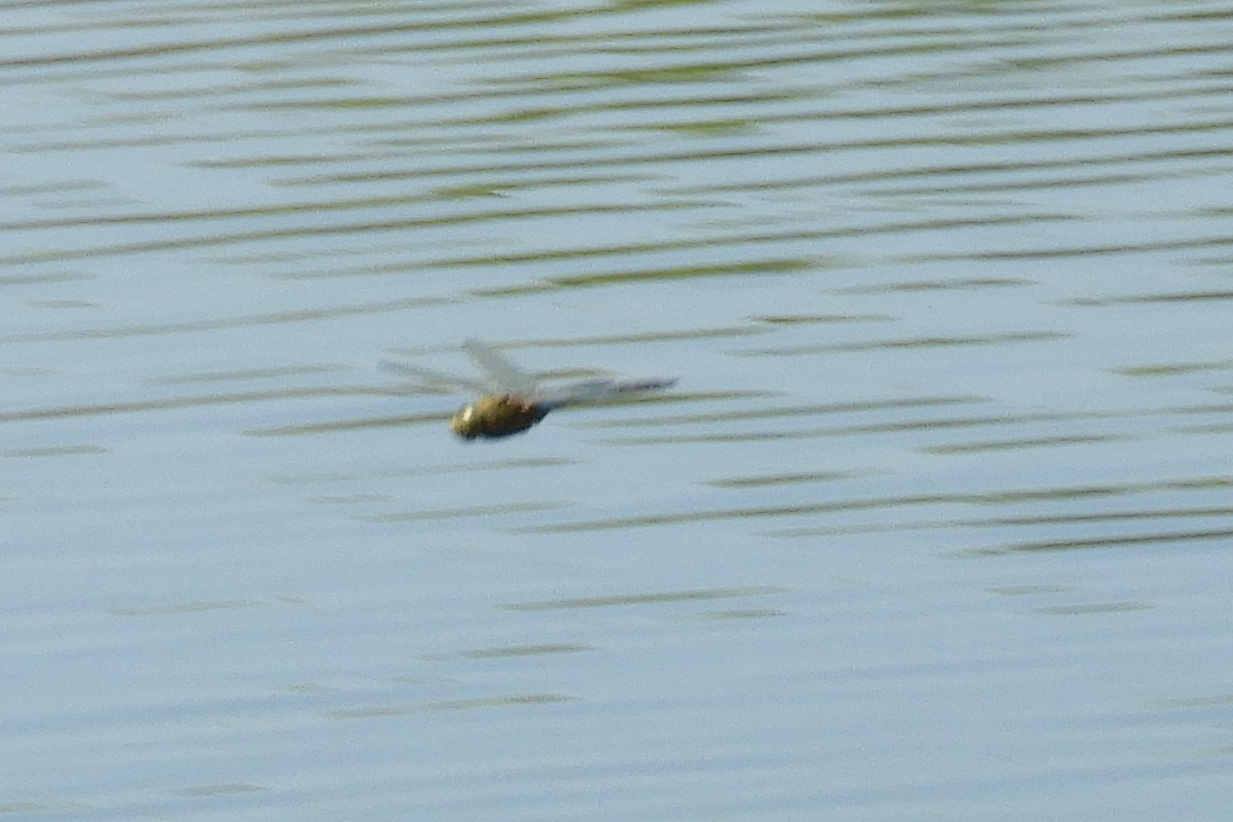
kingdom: Animalia
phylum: Arthropoda
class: Insecta
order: Odonata
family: Aeshnidae
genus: Anax
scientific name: Anax junius
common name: Common green darner
